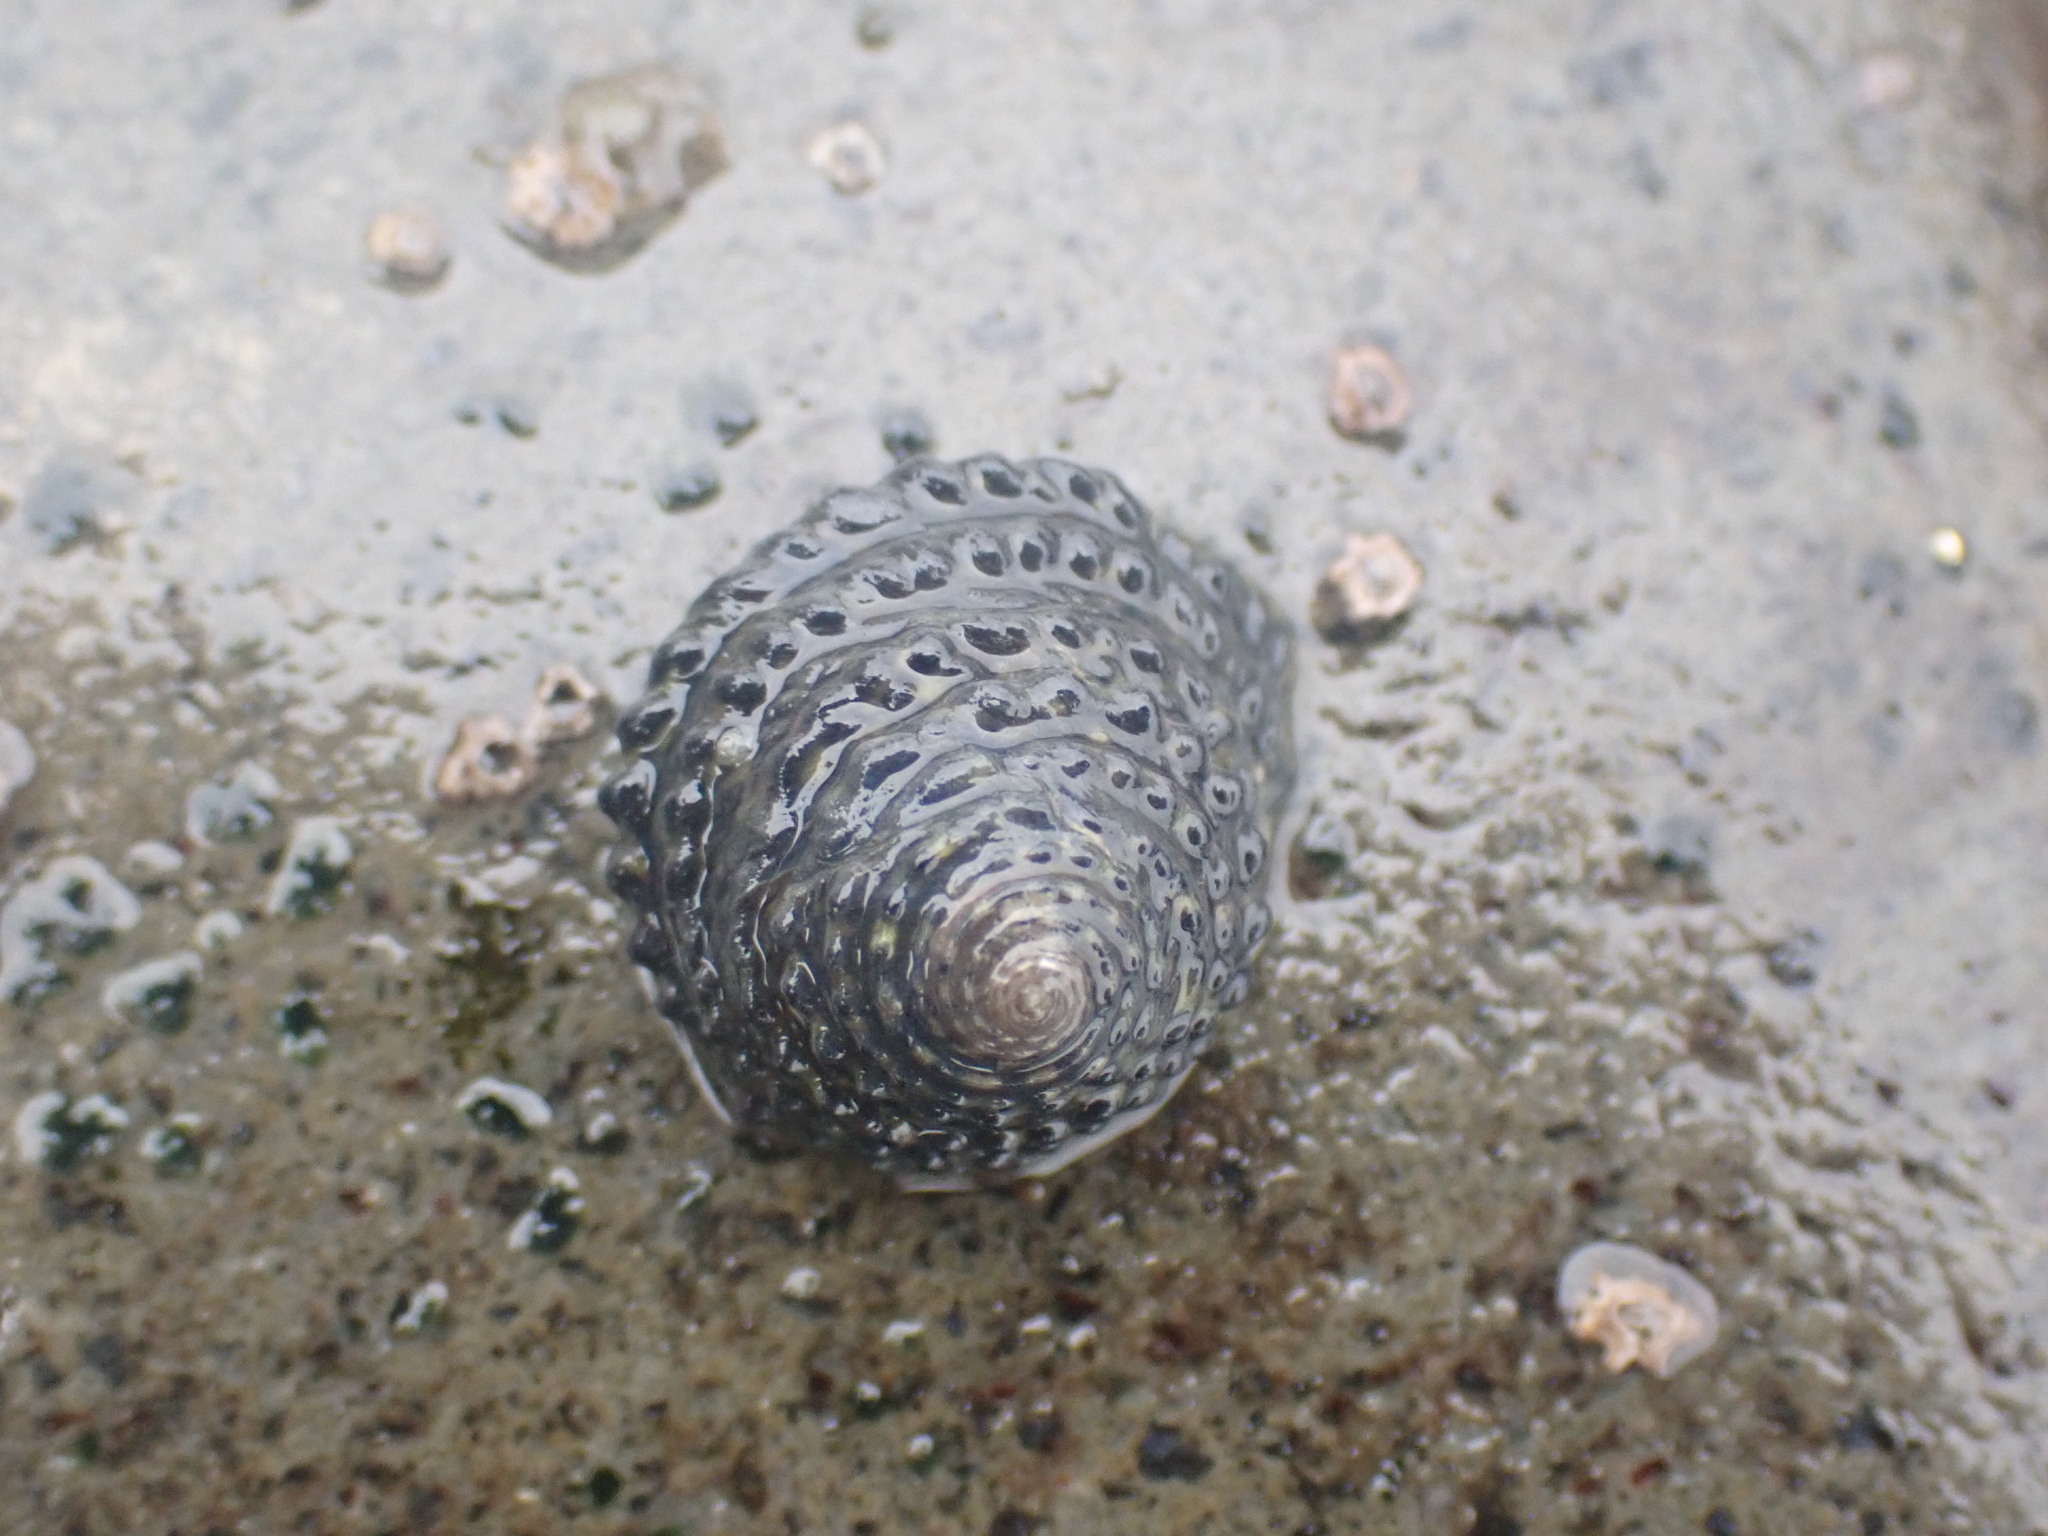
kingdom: Animalia
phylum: Mollusca
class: Gastropoda
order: Trochida
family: Trochidae
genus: Diloma
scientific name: Diloma bicanaliculatum
